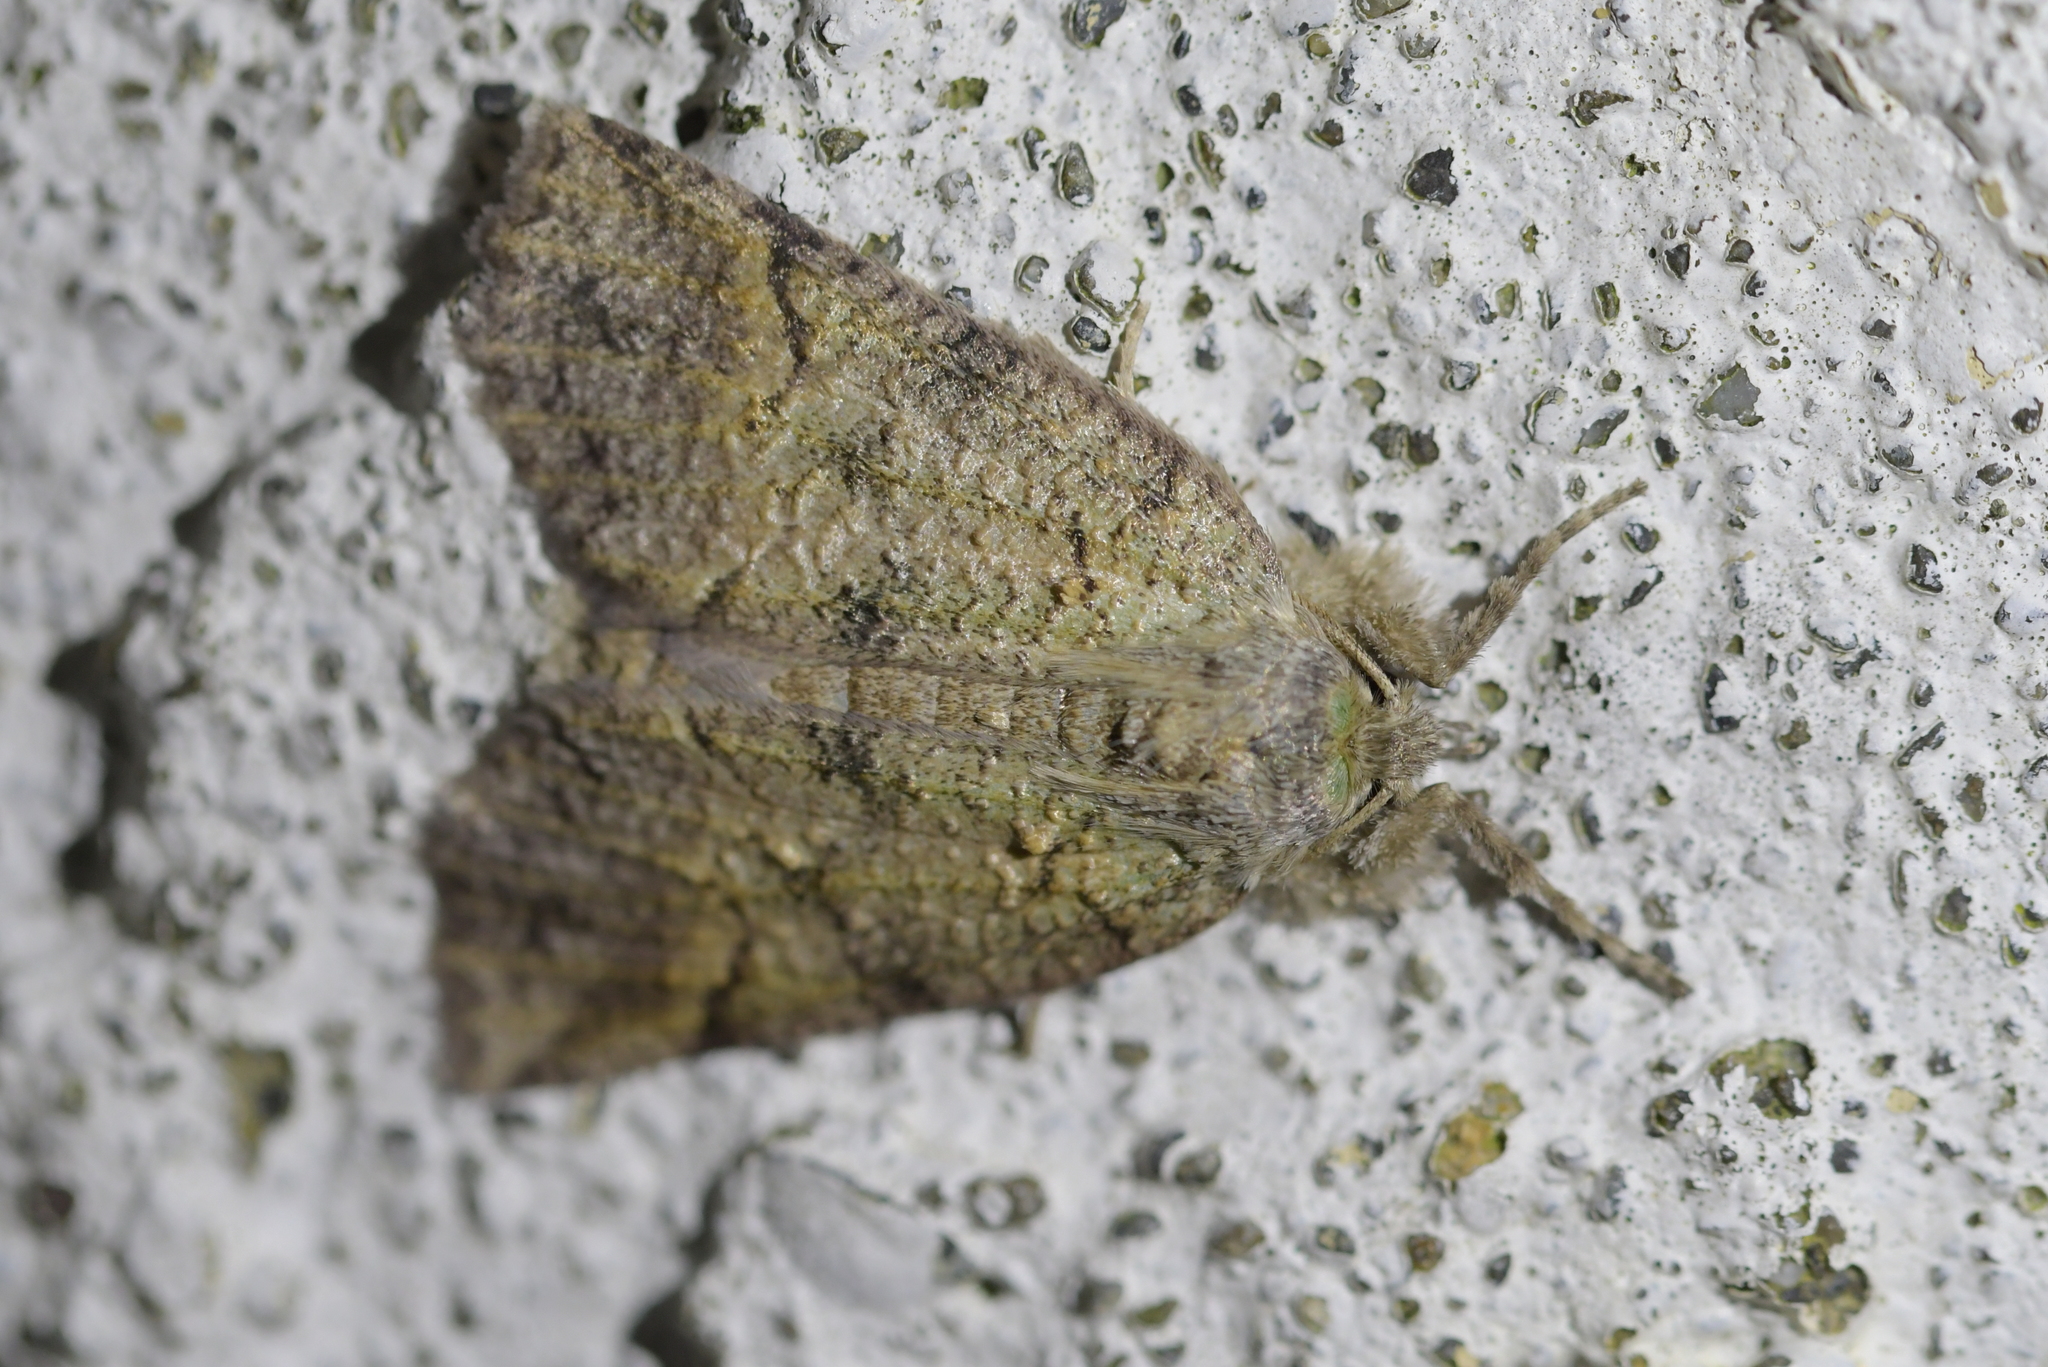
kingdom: Animalia
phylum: Arthropoda
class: Insecta
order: Lepidoptera
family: Geometridae
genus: Declana
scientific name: Declana floccosa
